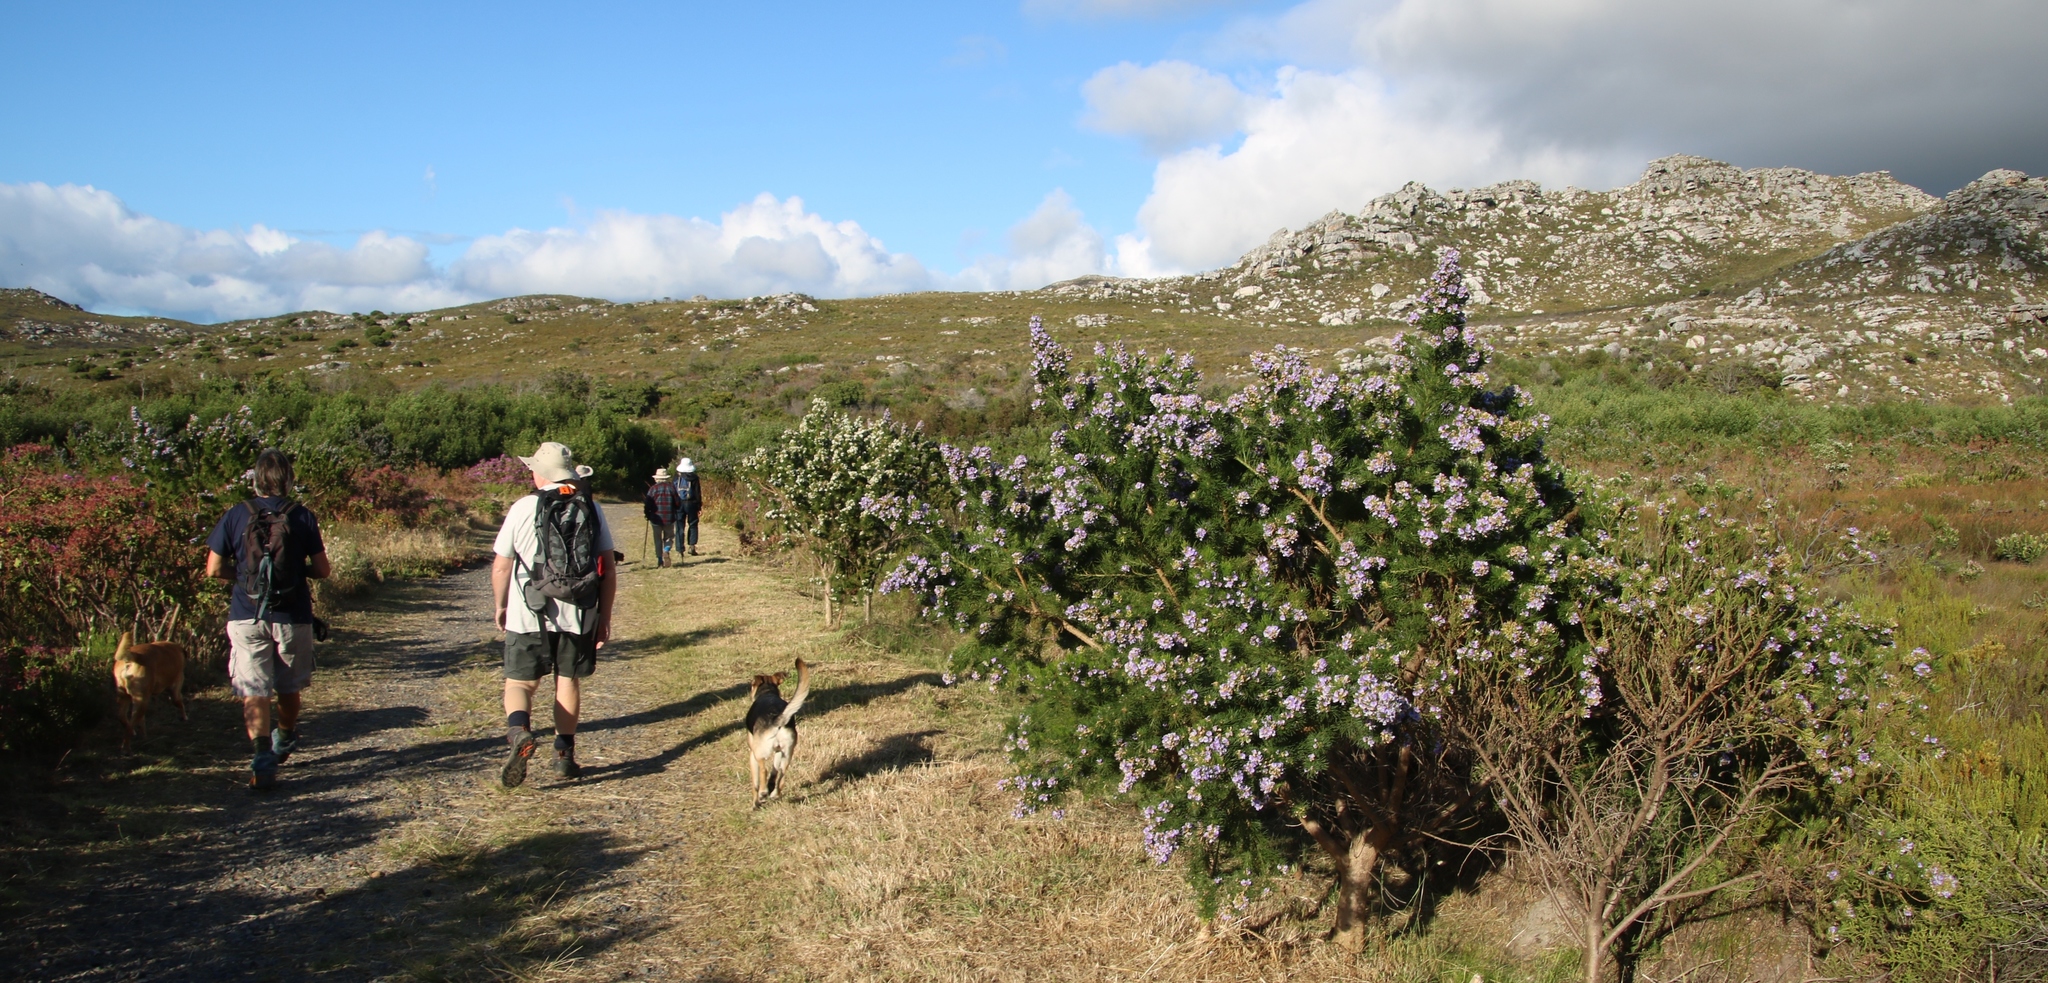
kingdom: Plantae
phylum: Tracheophyta
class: Magnoliopsida
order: Fabales
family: Fabaceae
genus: Psoralea
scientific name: Psoralea pinnata
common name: African scurfpea
